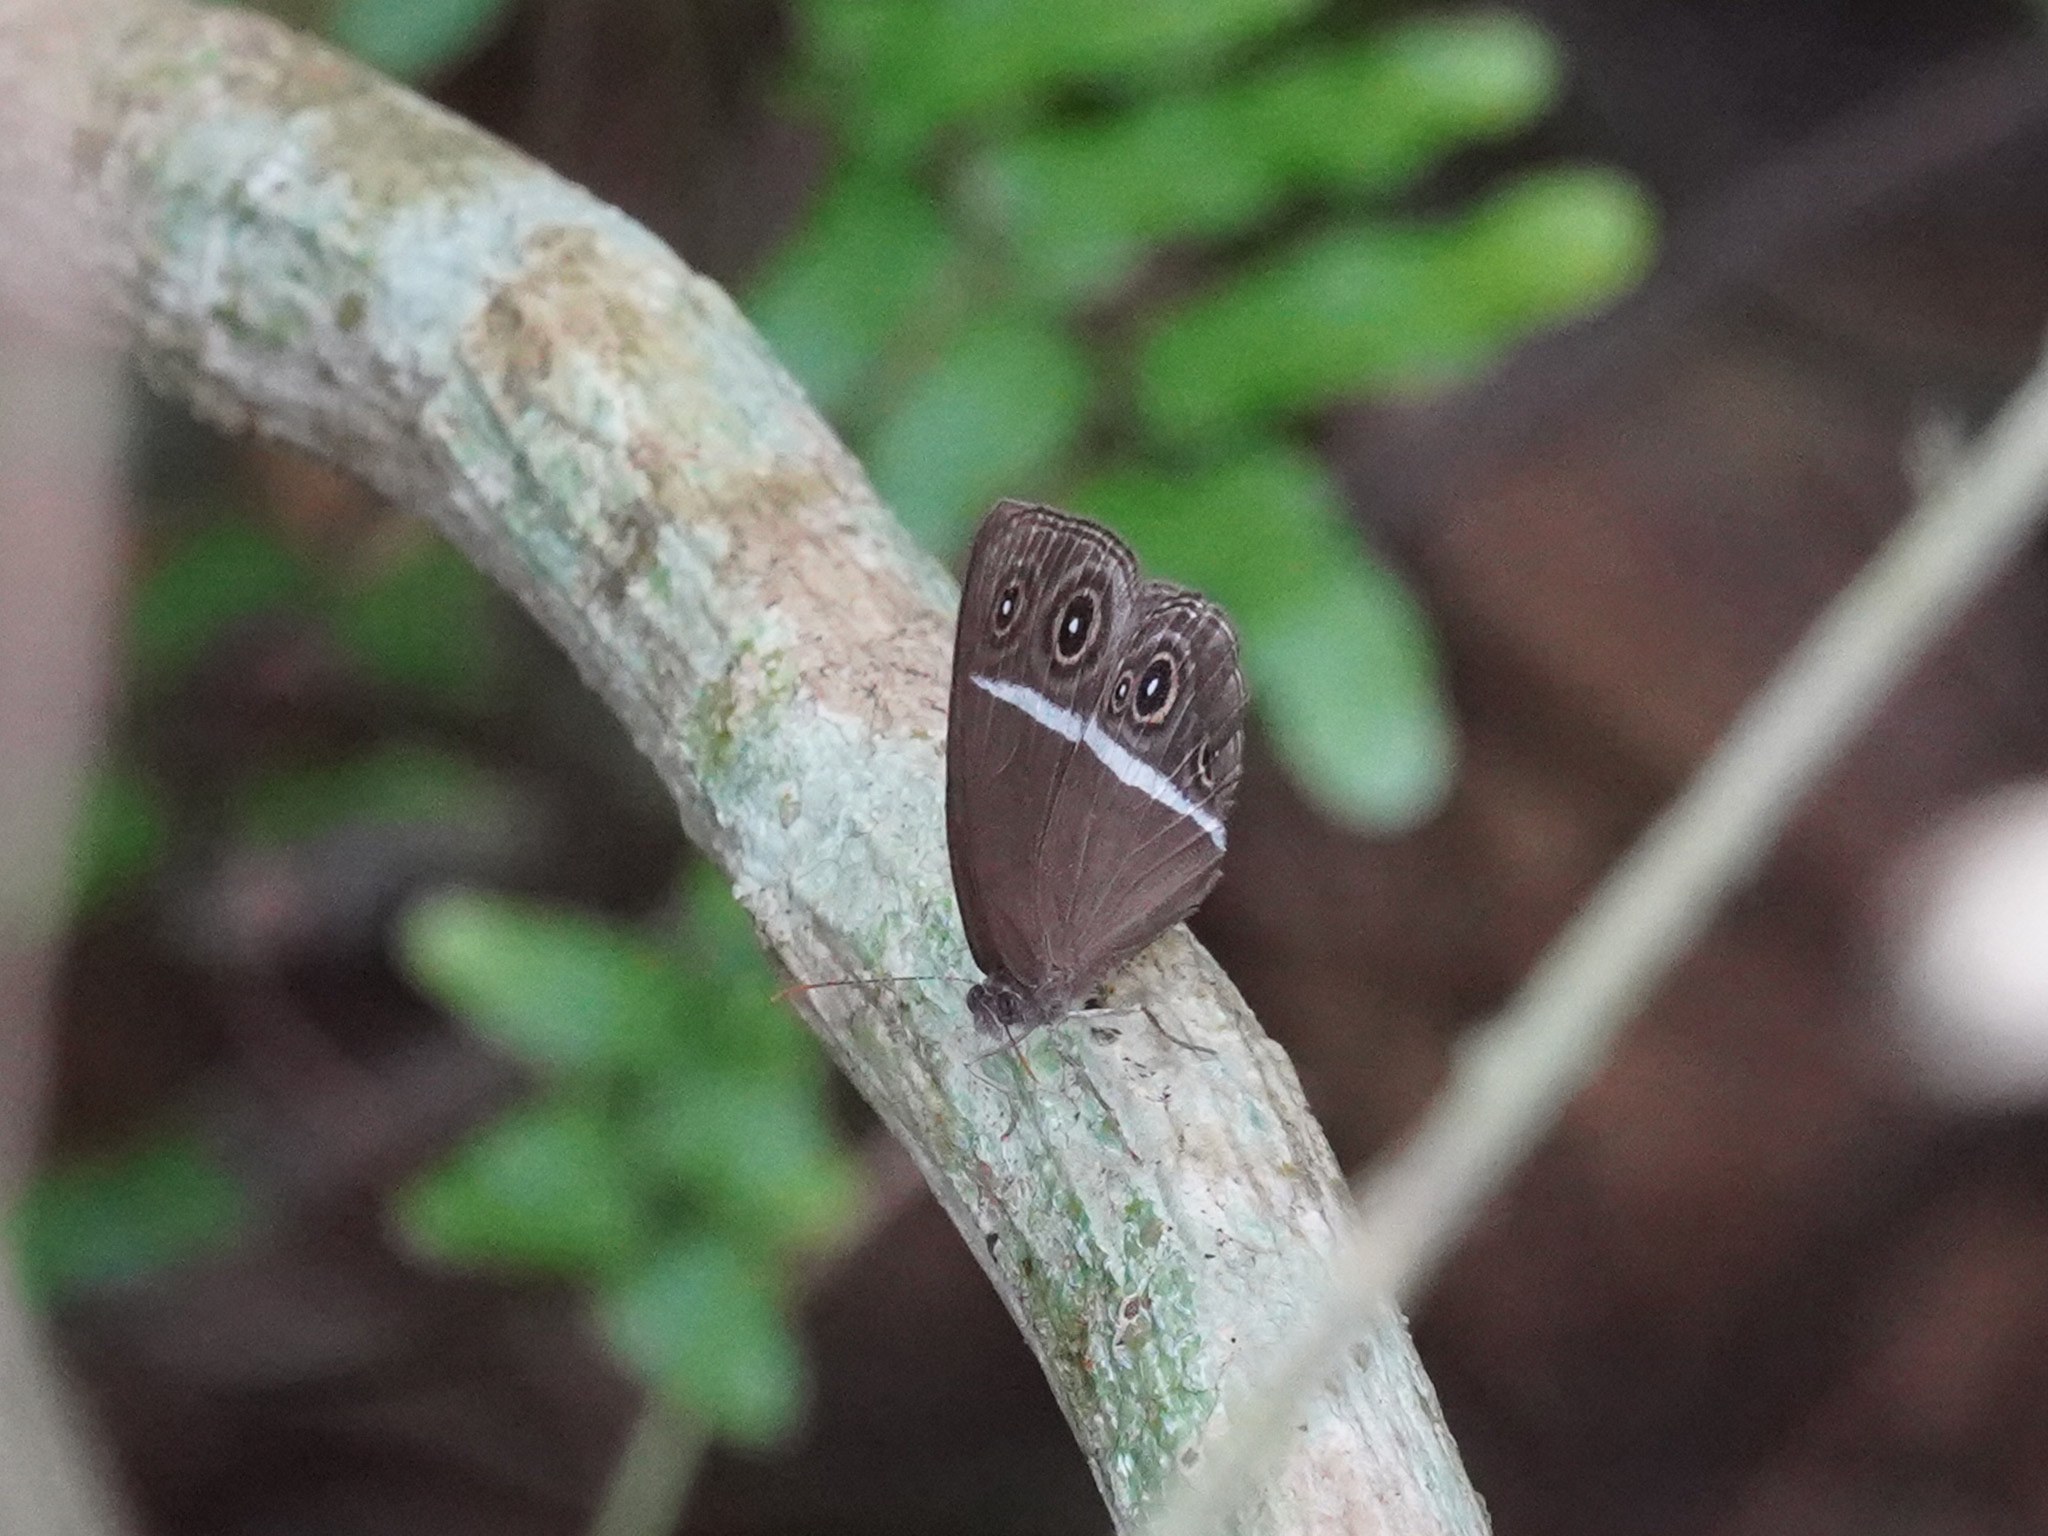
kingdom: Animalia
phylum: Arthropoda
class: Insecta
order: Lepidoptera
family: Nymphalidae
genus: Orsotriaena
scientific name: Orsotriaena medus
